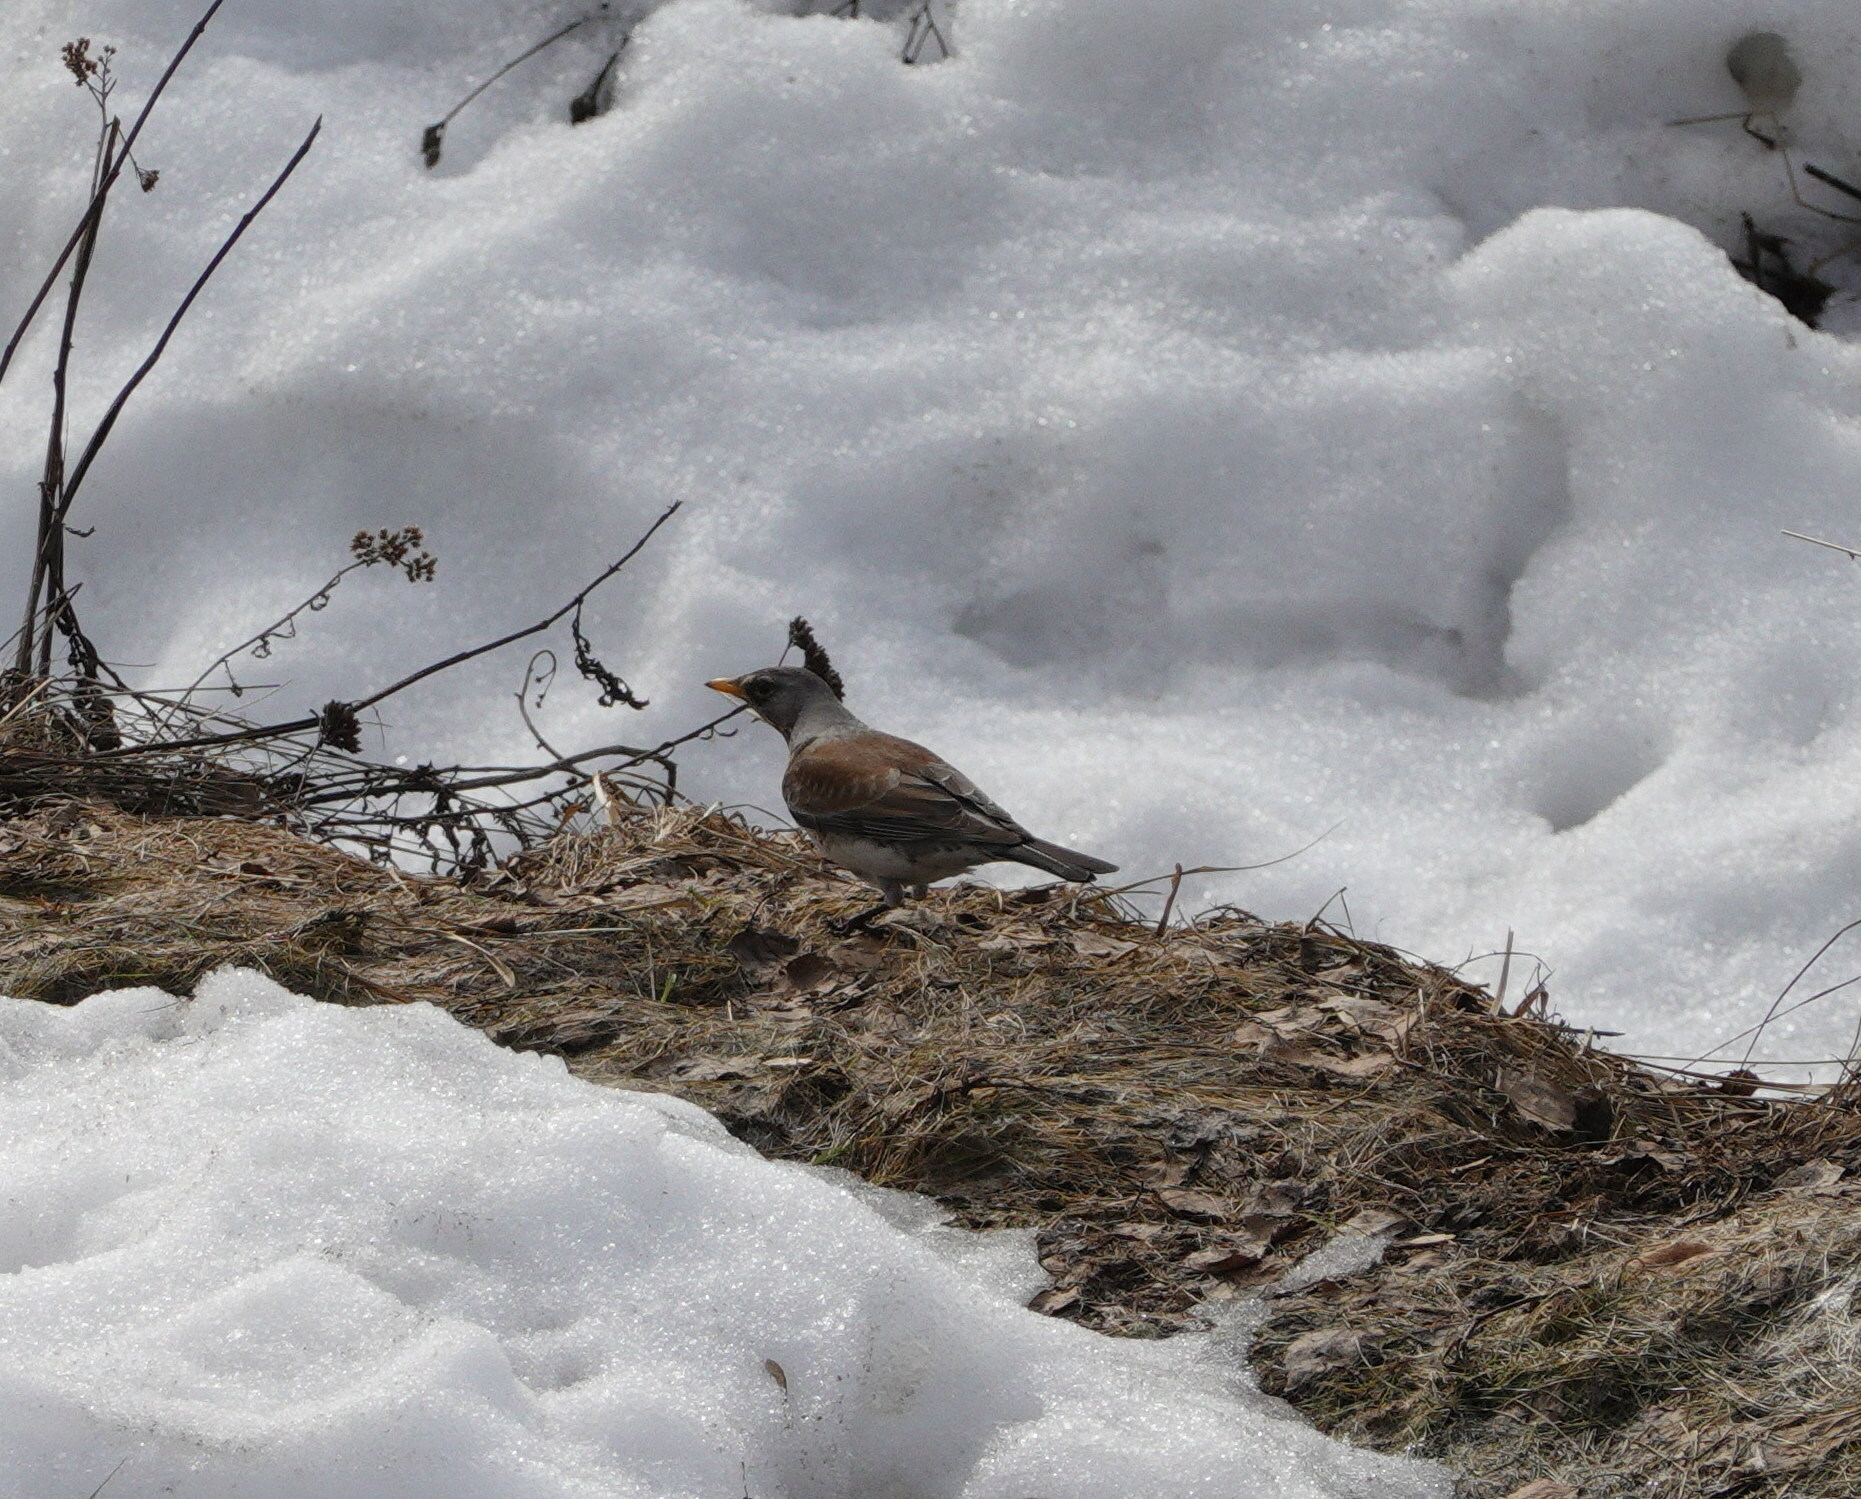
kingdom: Animalia
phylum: Chordata
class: Aves
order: Passeriformes
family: Turdidae
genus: Turdus
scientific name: Turdus pilaris
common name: Fieldfare
